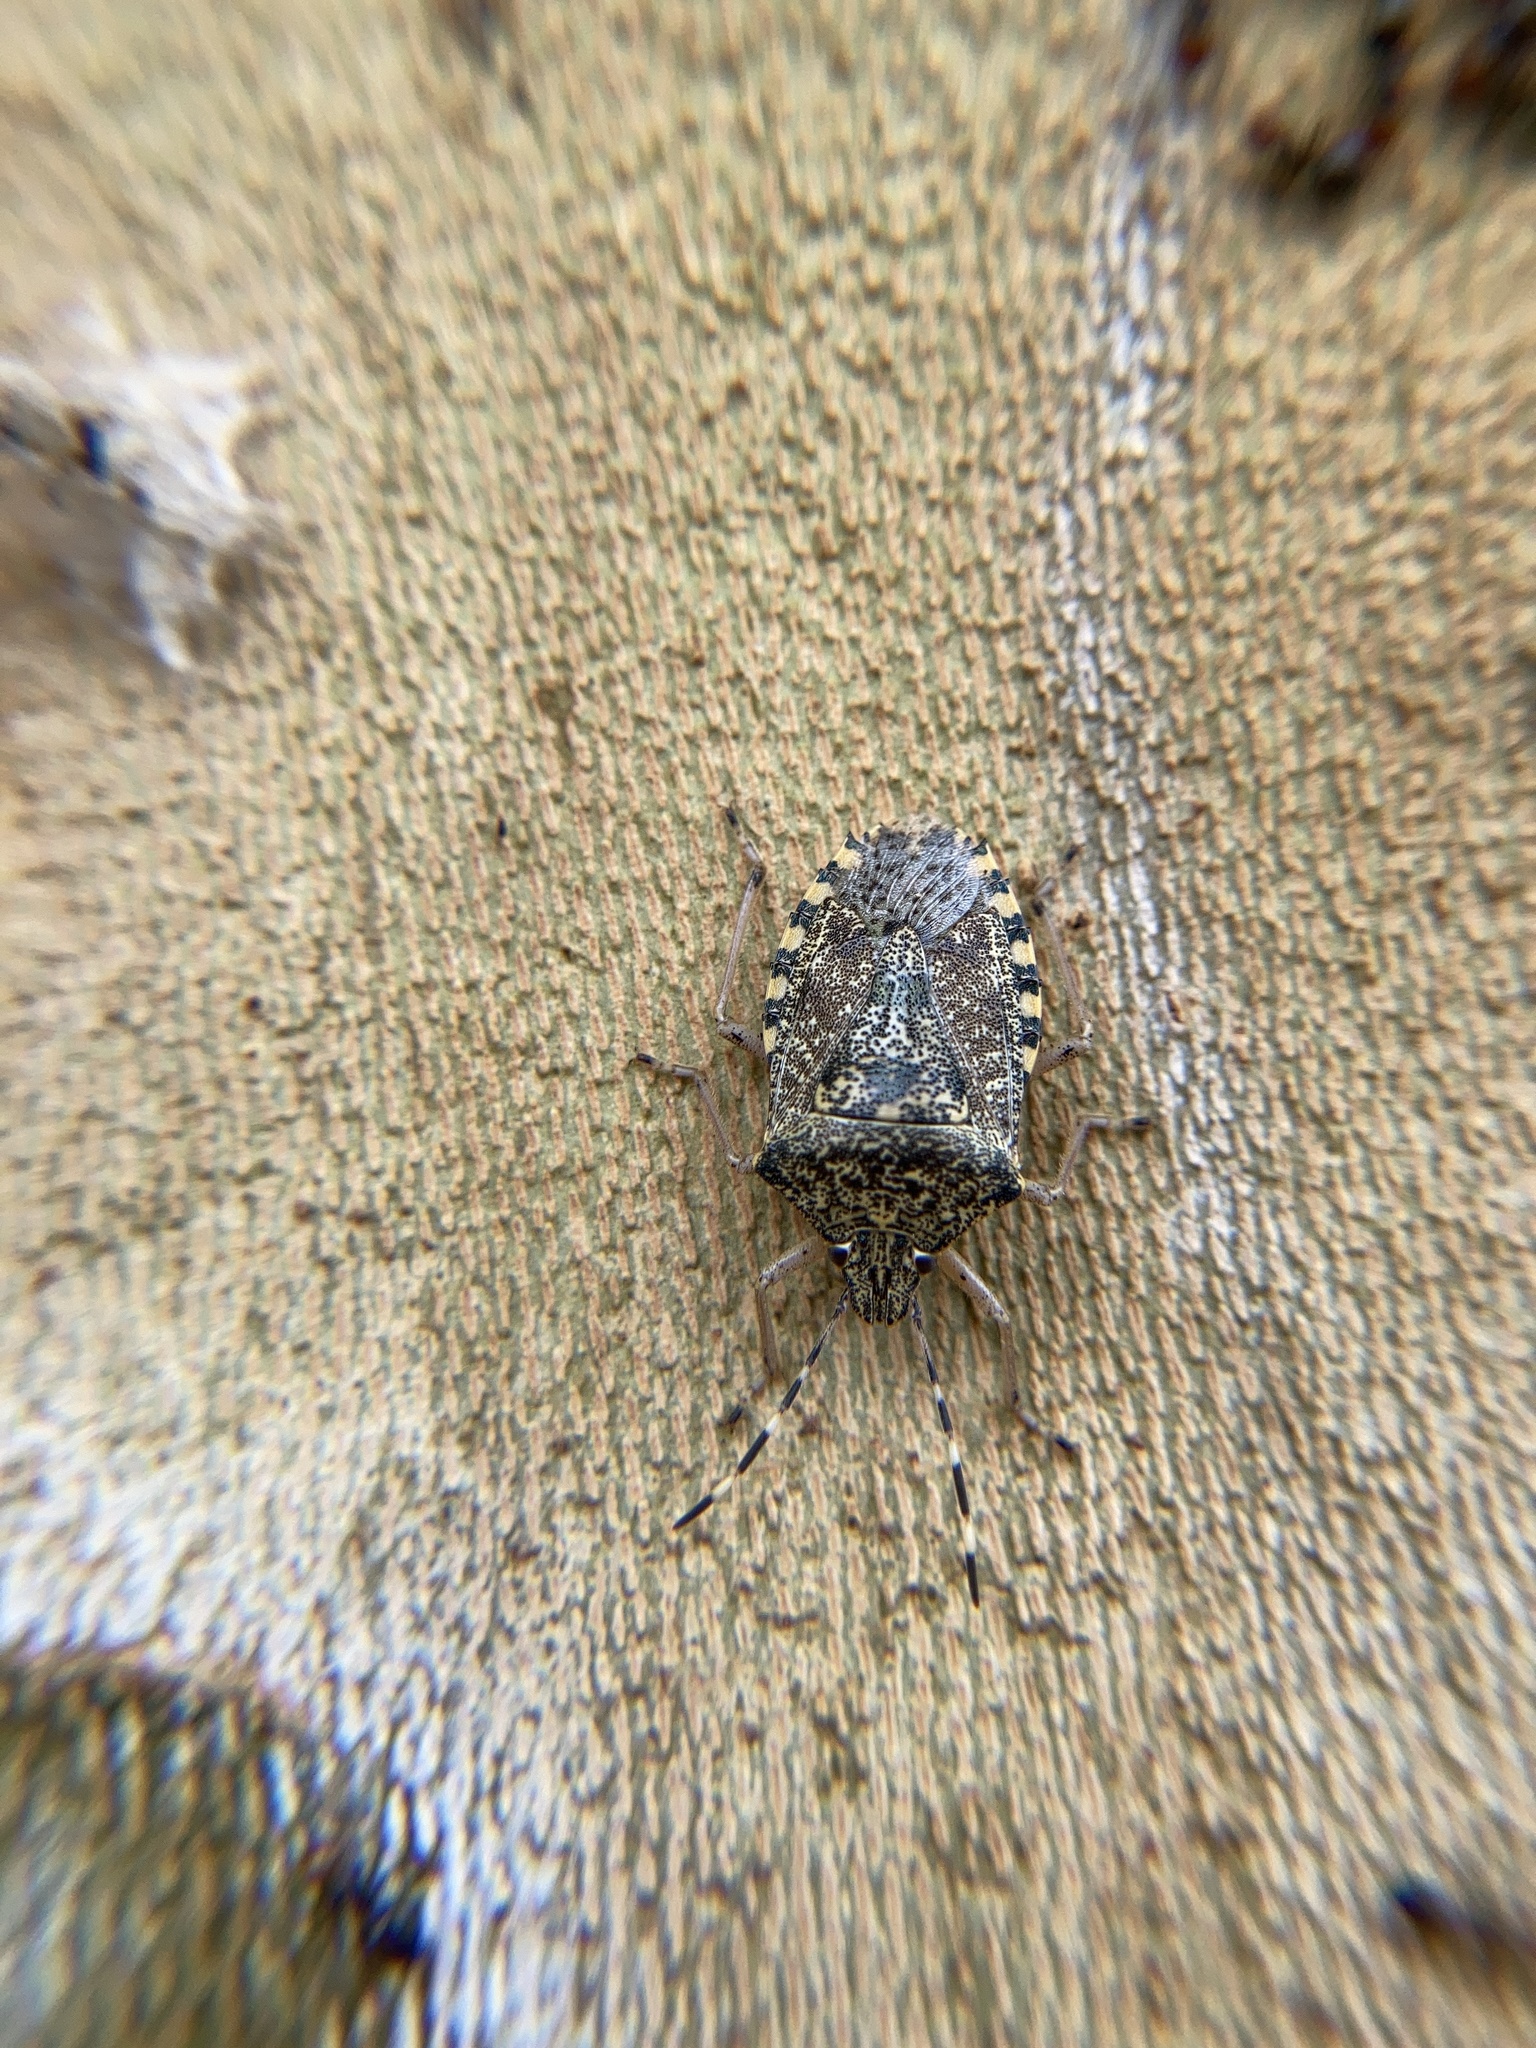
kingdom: Animalia
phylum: Arthropoda
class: Insecta
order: Hemiptera
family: Pentatomidae
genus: Rhaphigaster
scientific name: Rhaphigaster nebulosa
